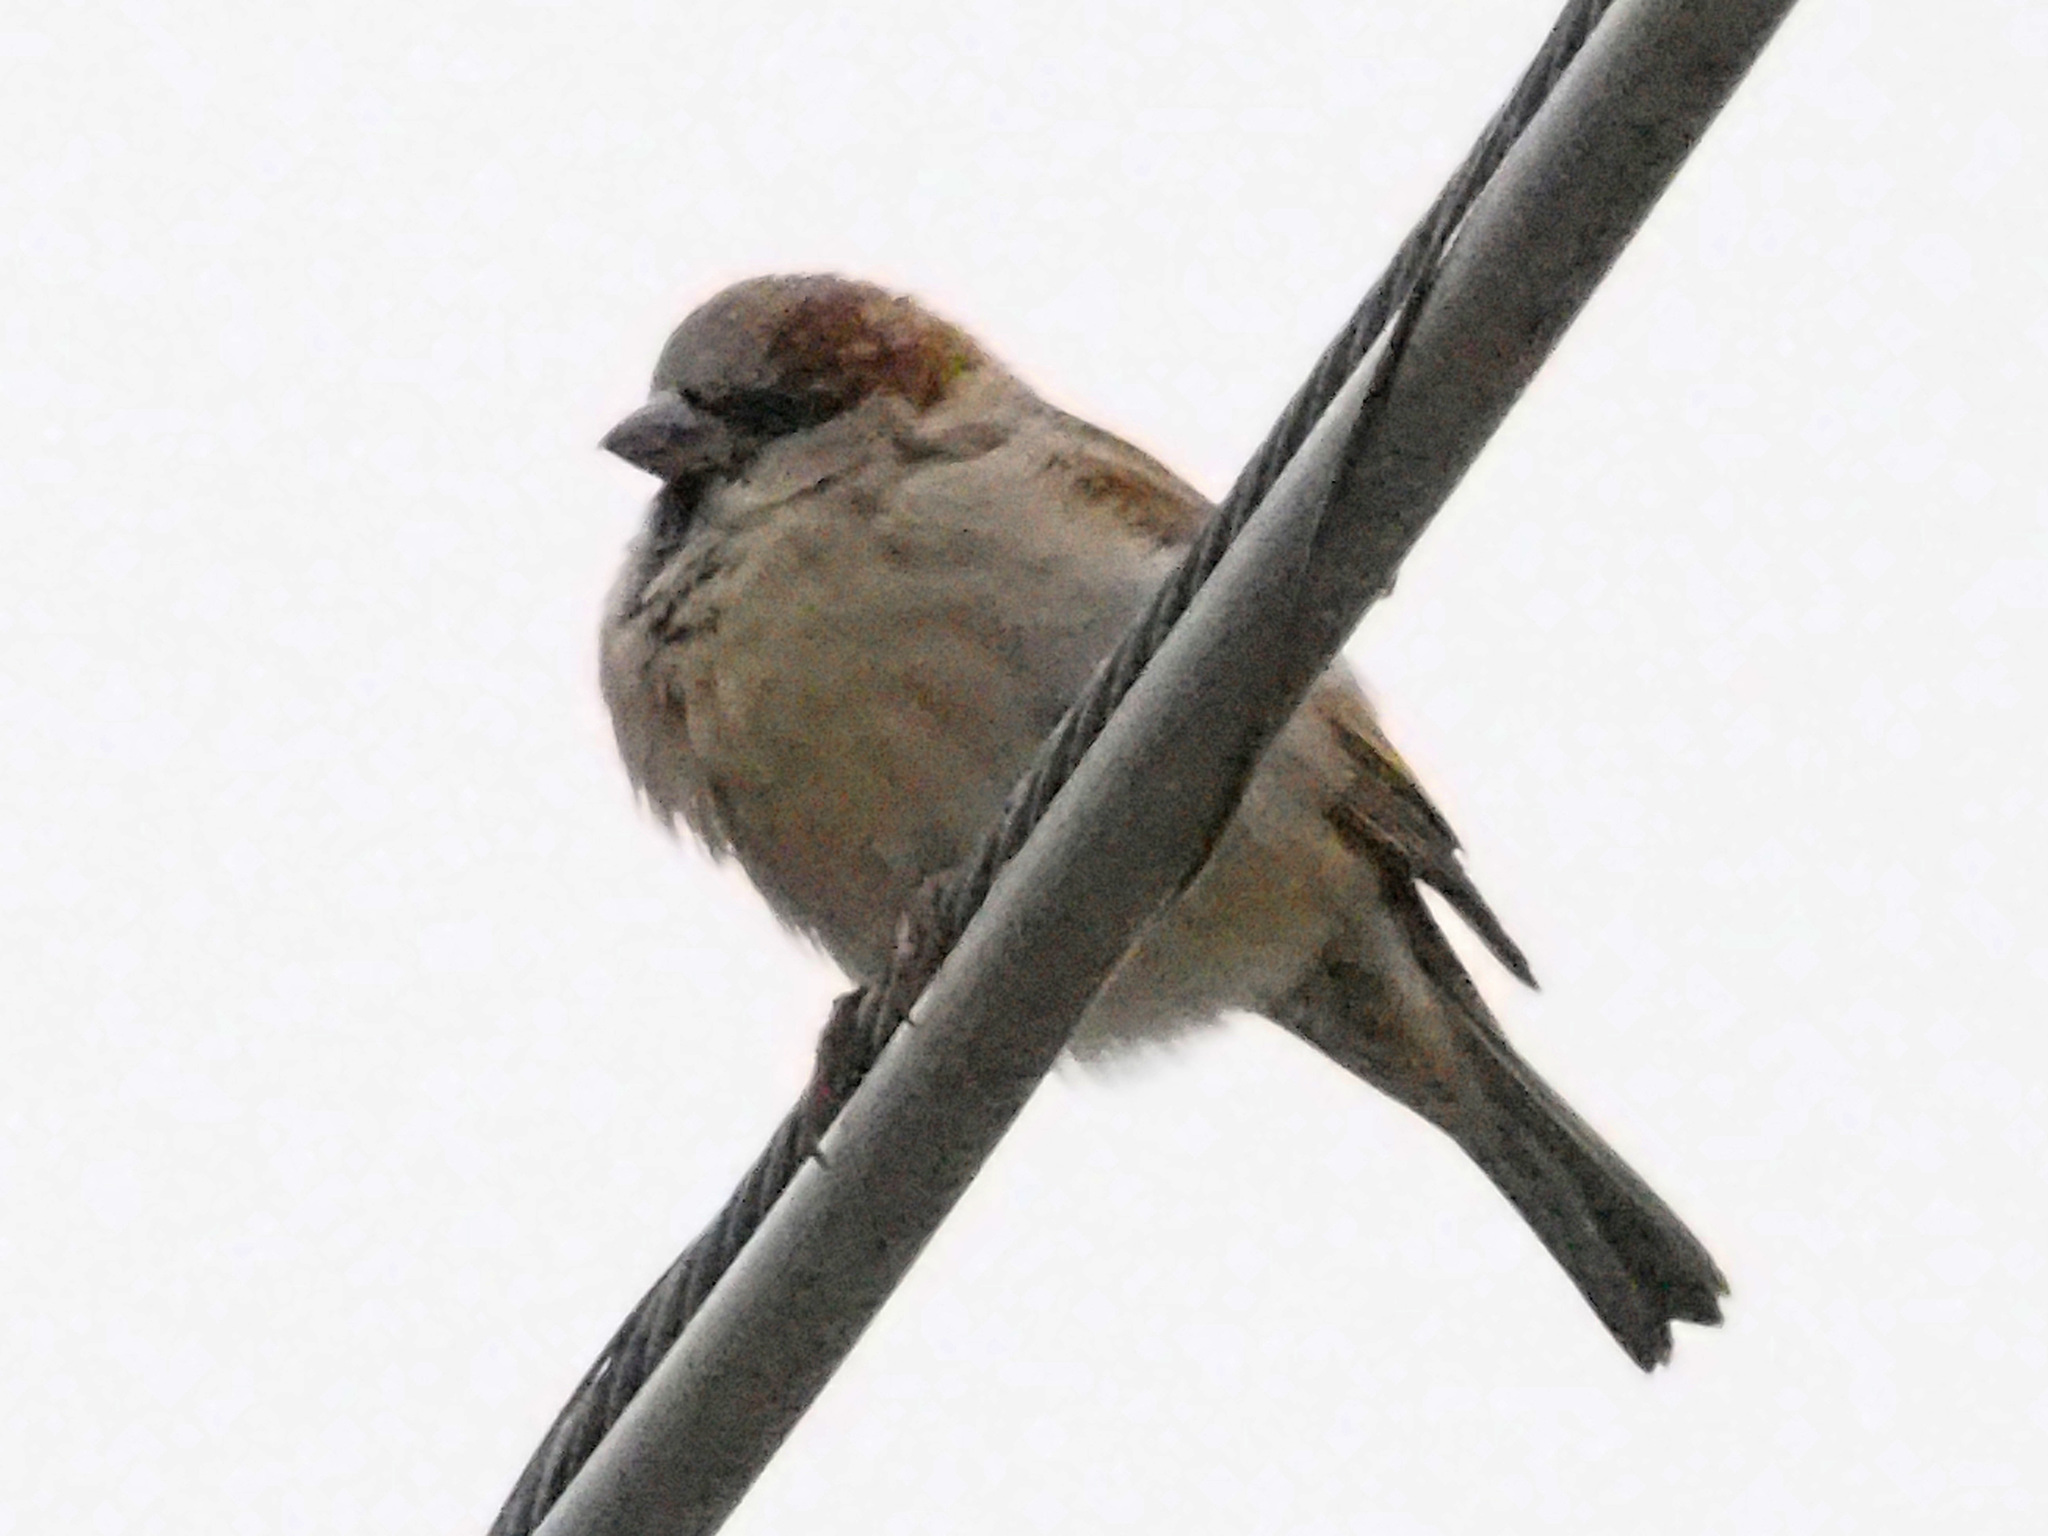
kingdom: Animalia
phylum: Chordata
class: Aves
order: Passeriformes
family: Passeridae
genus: Passer
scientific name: Passer domesticus
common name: House sparrow
